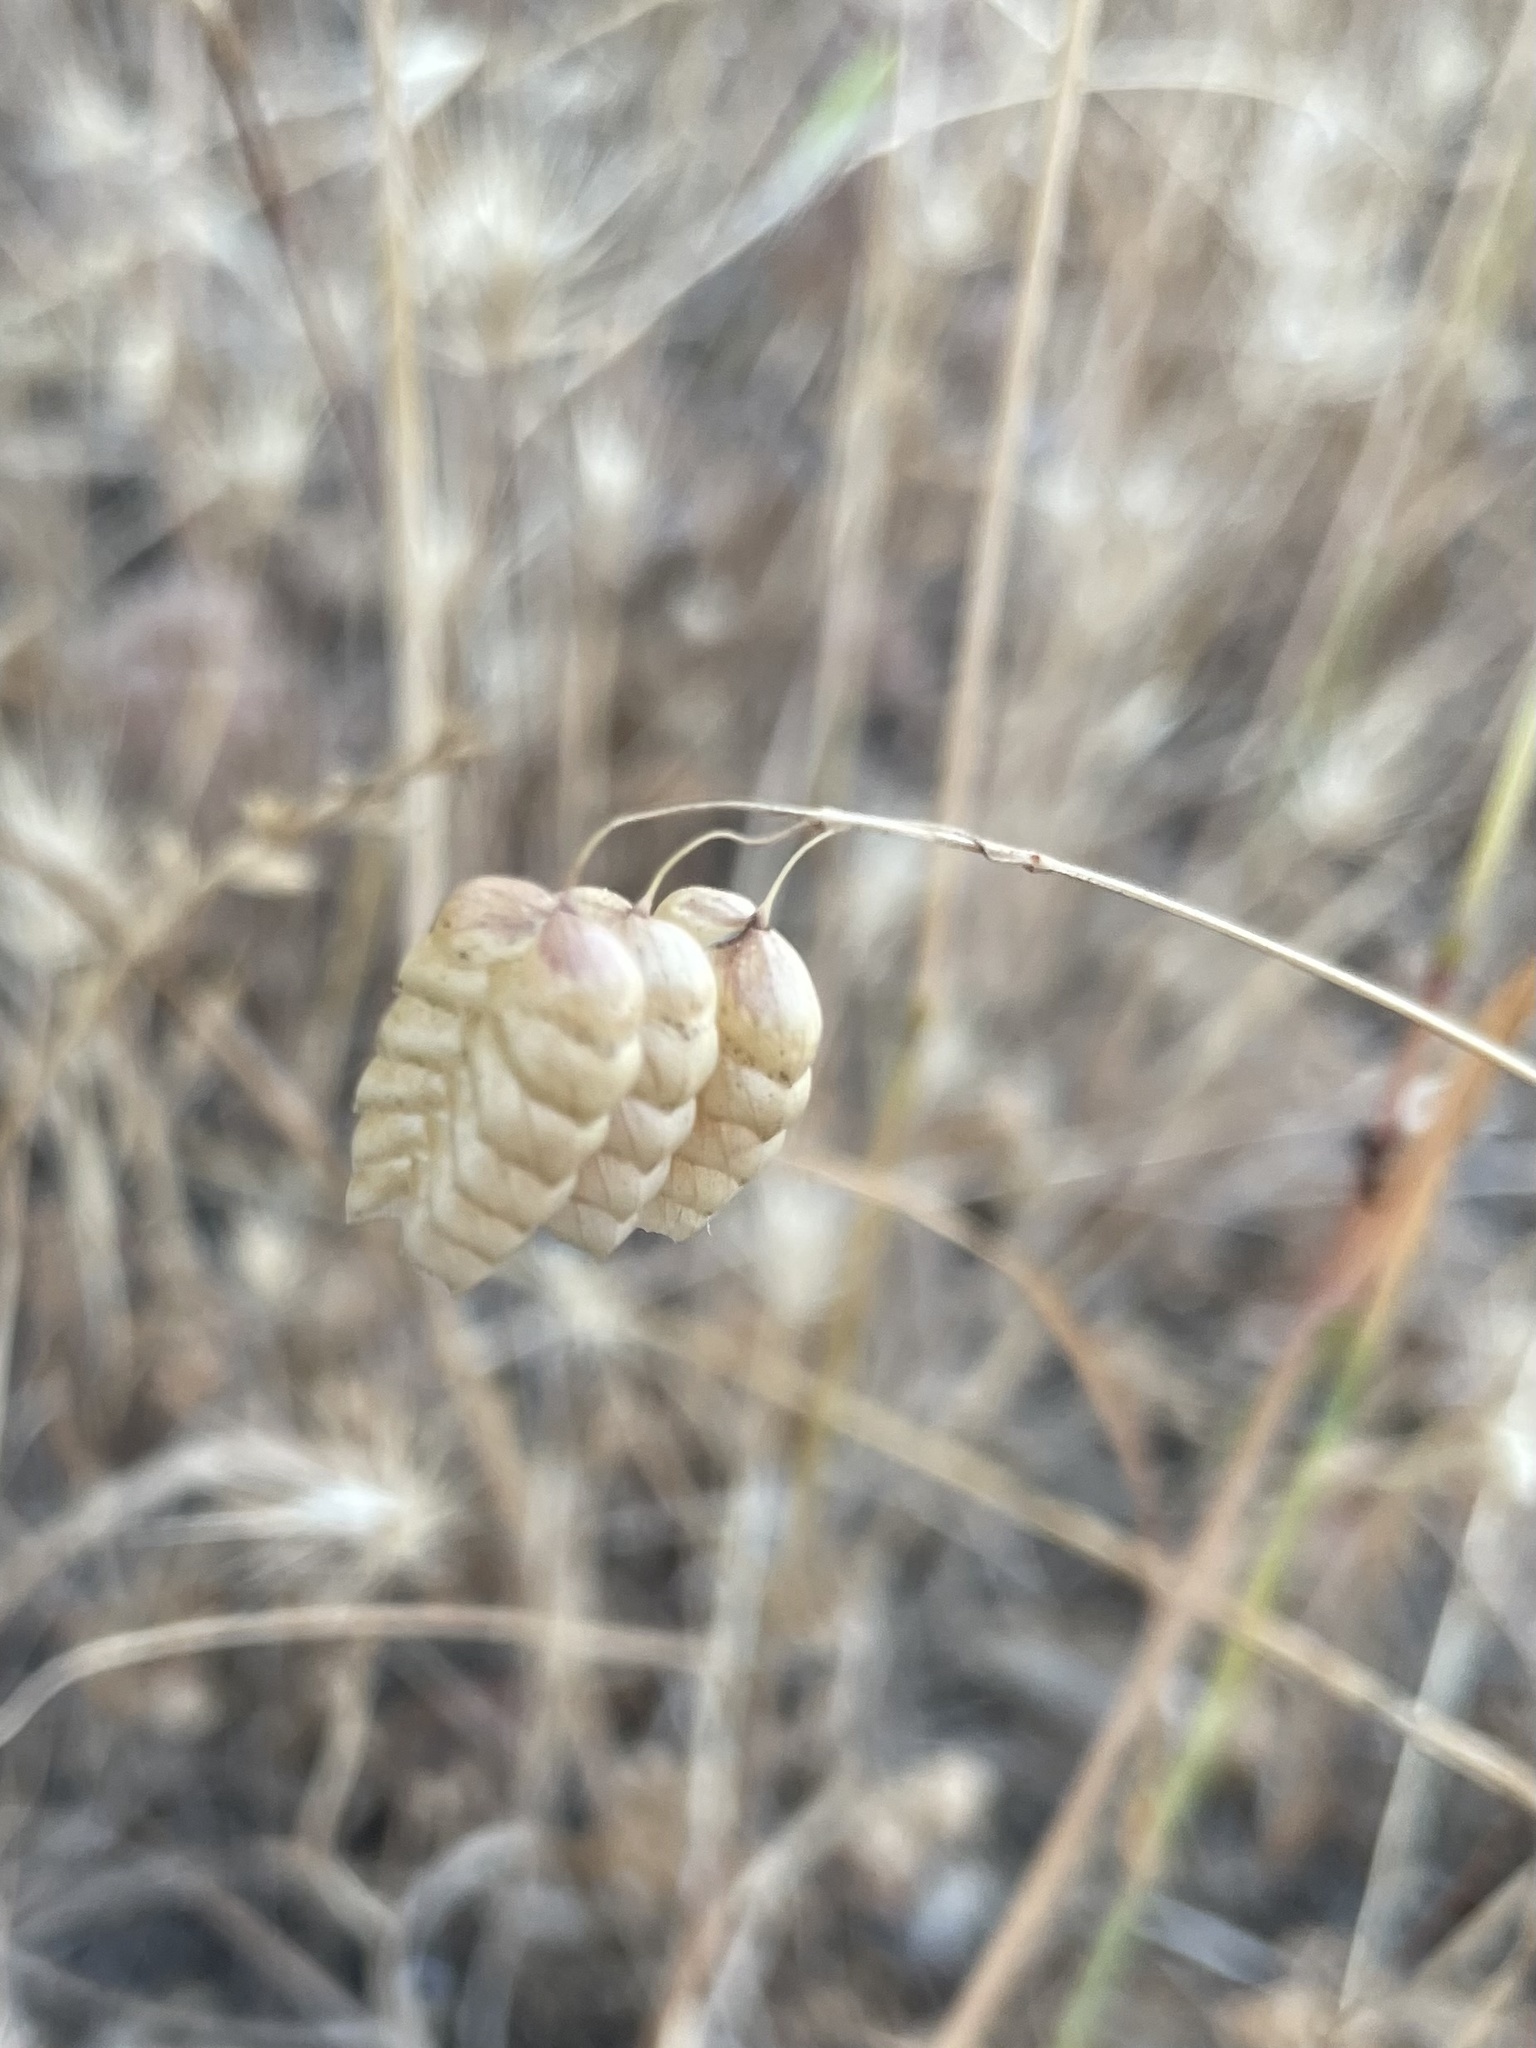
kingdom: Plantae
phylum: Tracheophyta
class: Liliopsida
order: Poales
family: Poaceae
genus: Briza
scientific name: Briza maxima
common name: Big quakinggrass
